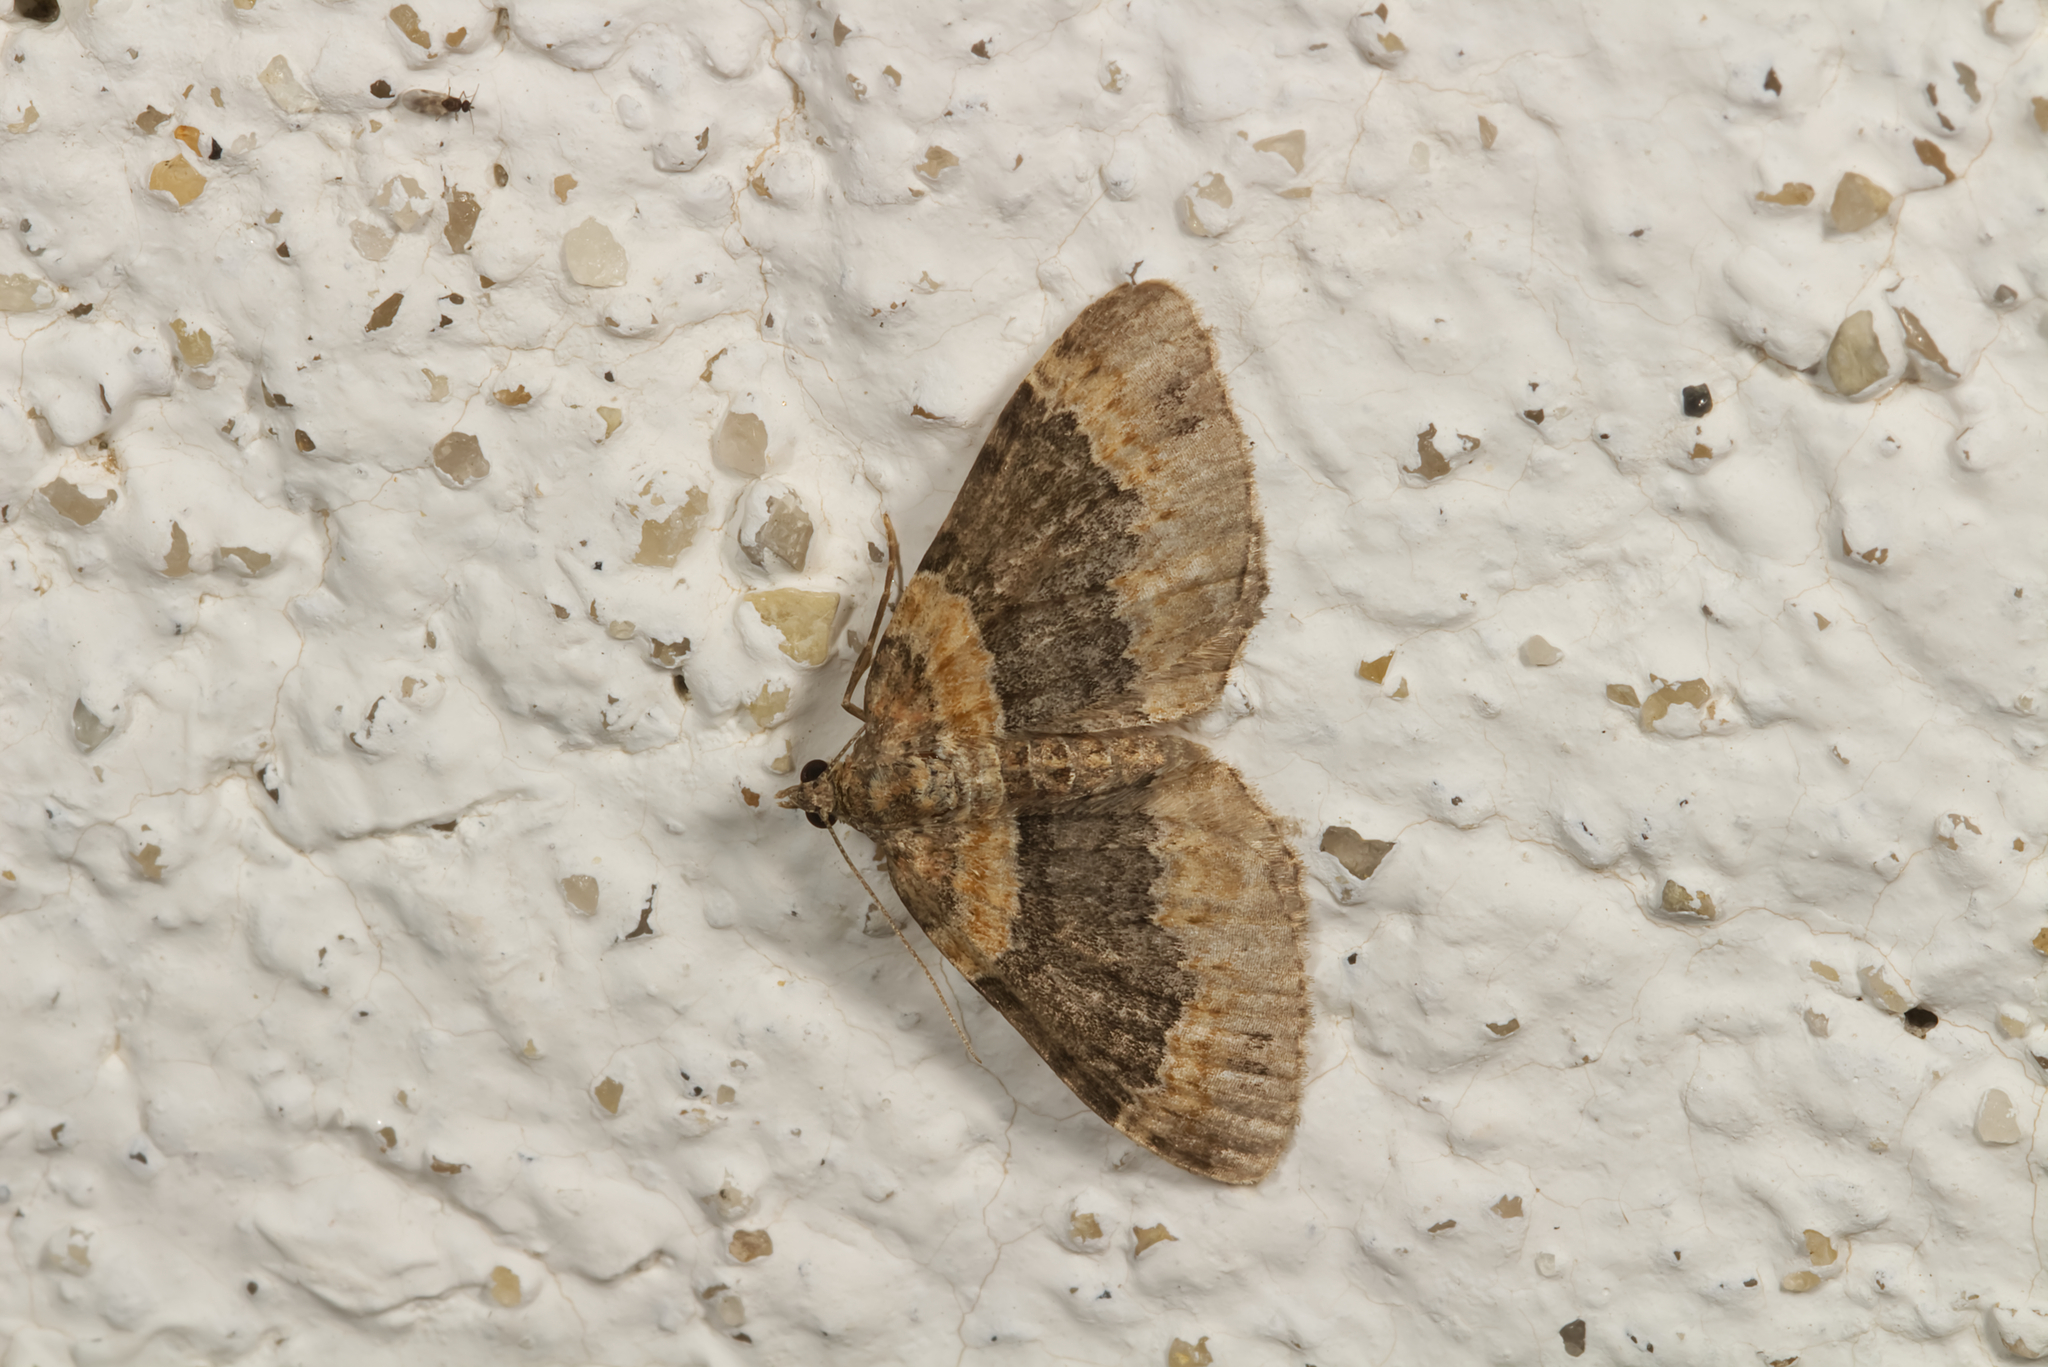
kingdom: Animalia
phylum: Arthropoda
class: Insecta
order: Lepidoptera
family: Geometridae
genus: Xanthorhoe
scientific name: Xanthorhoe ferrugata
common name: Dark-barred twin-spot carpet
